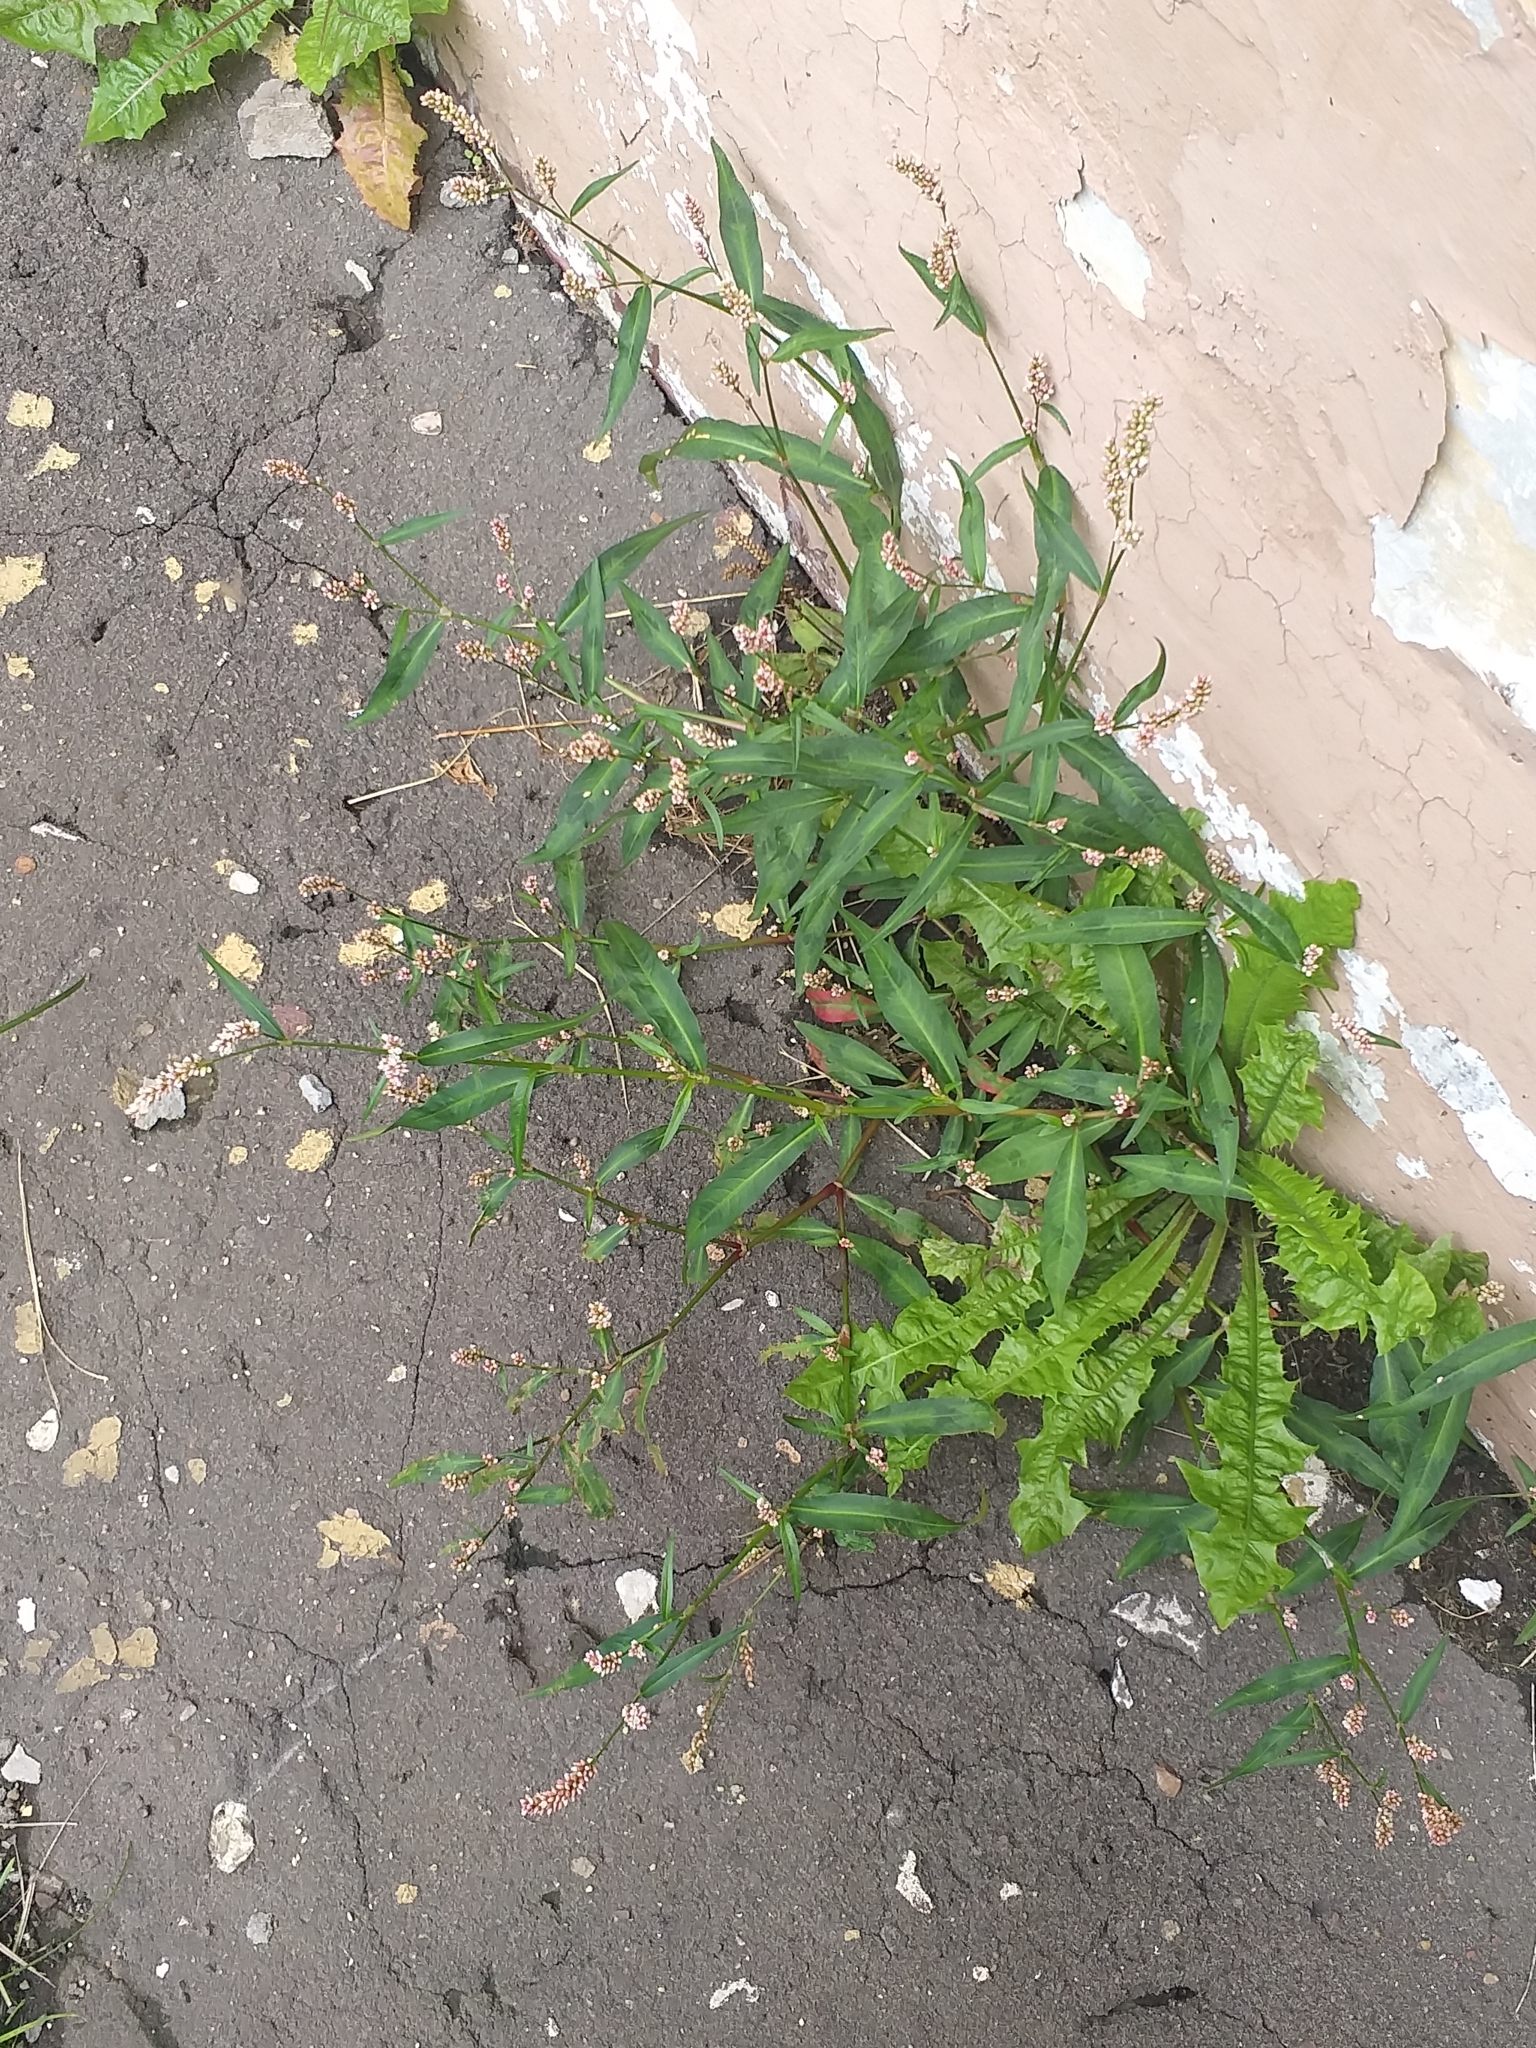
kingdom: Plantae
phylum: Tracheophyta
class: Magnoliopsida
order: Caryophyllales
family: Polygonaceae
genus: Persicaria
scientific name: Persicaria maculosa
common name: Redshank
